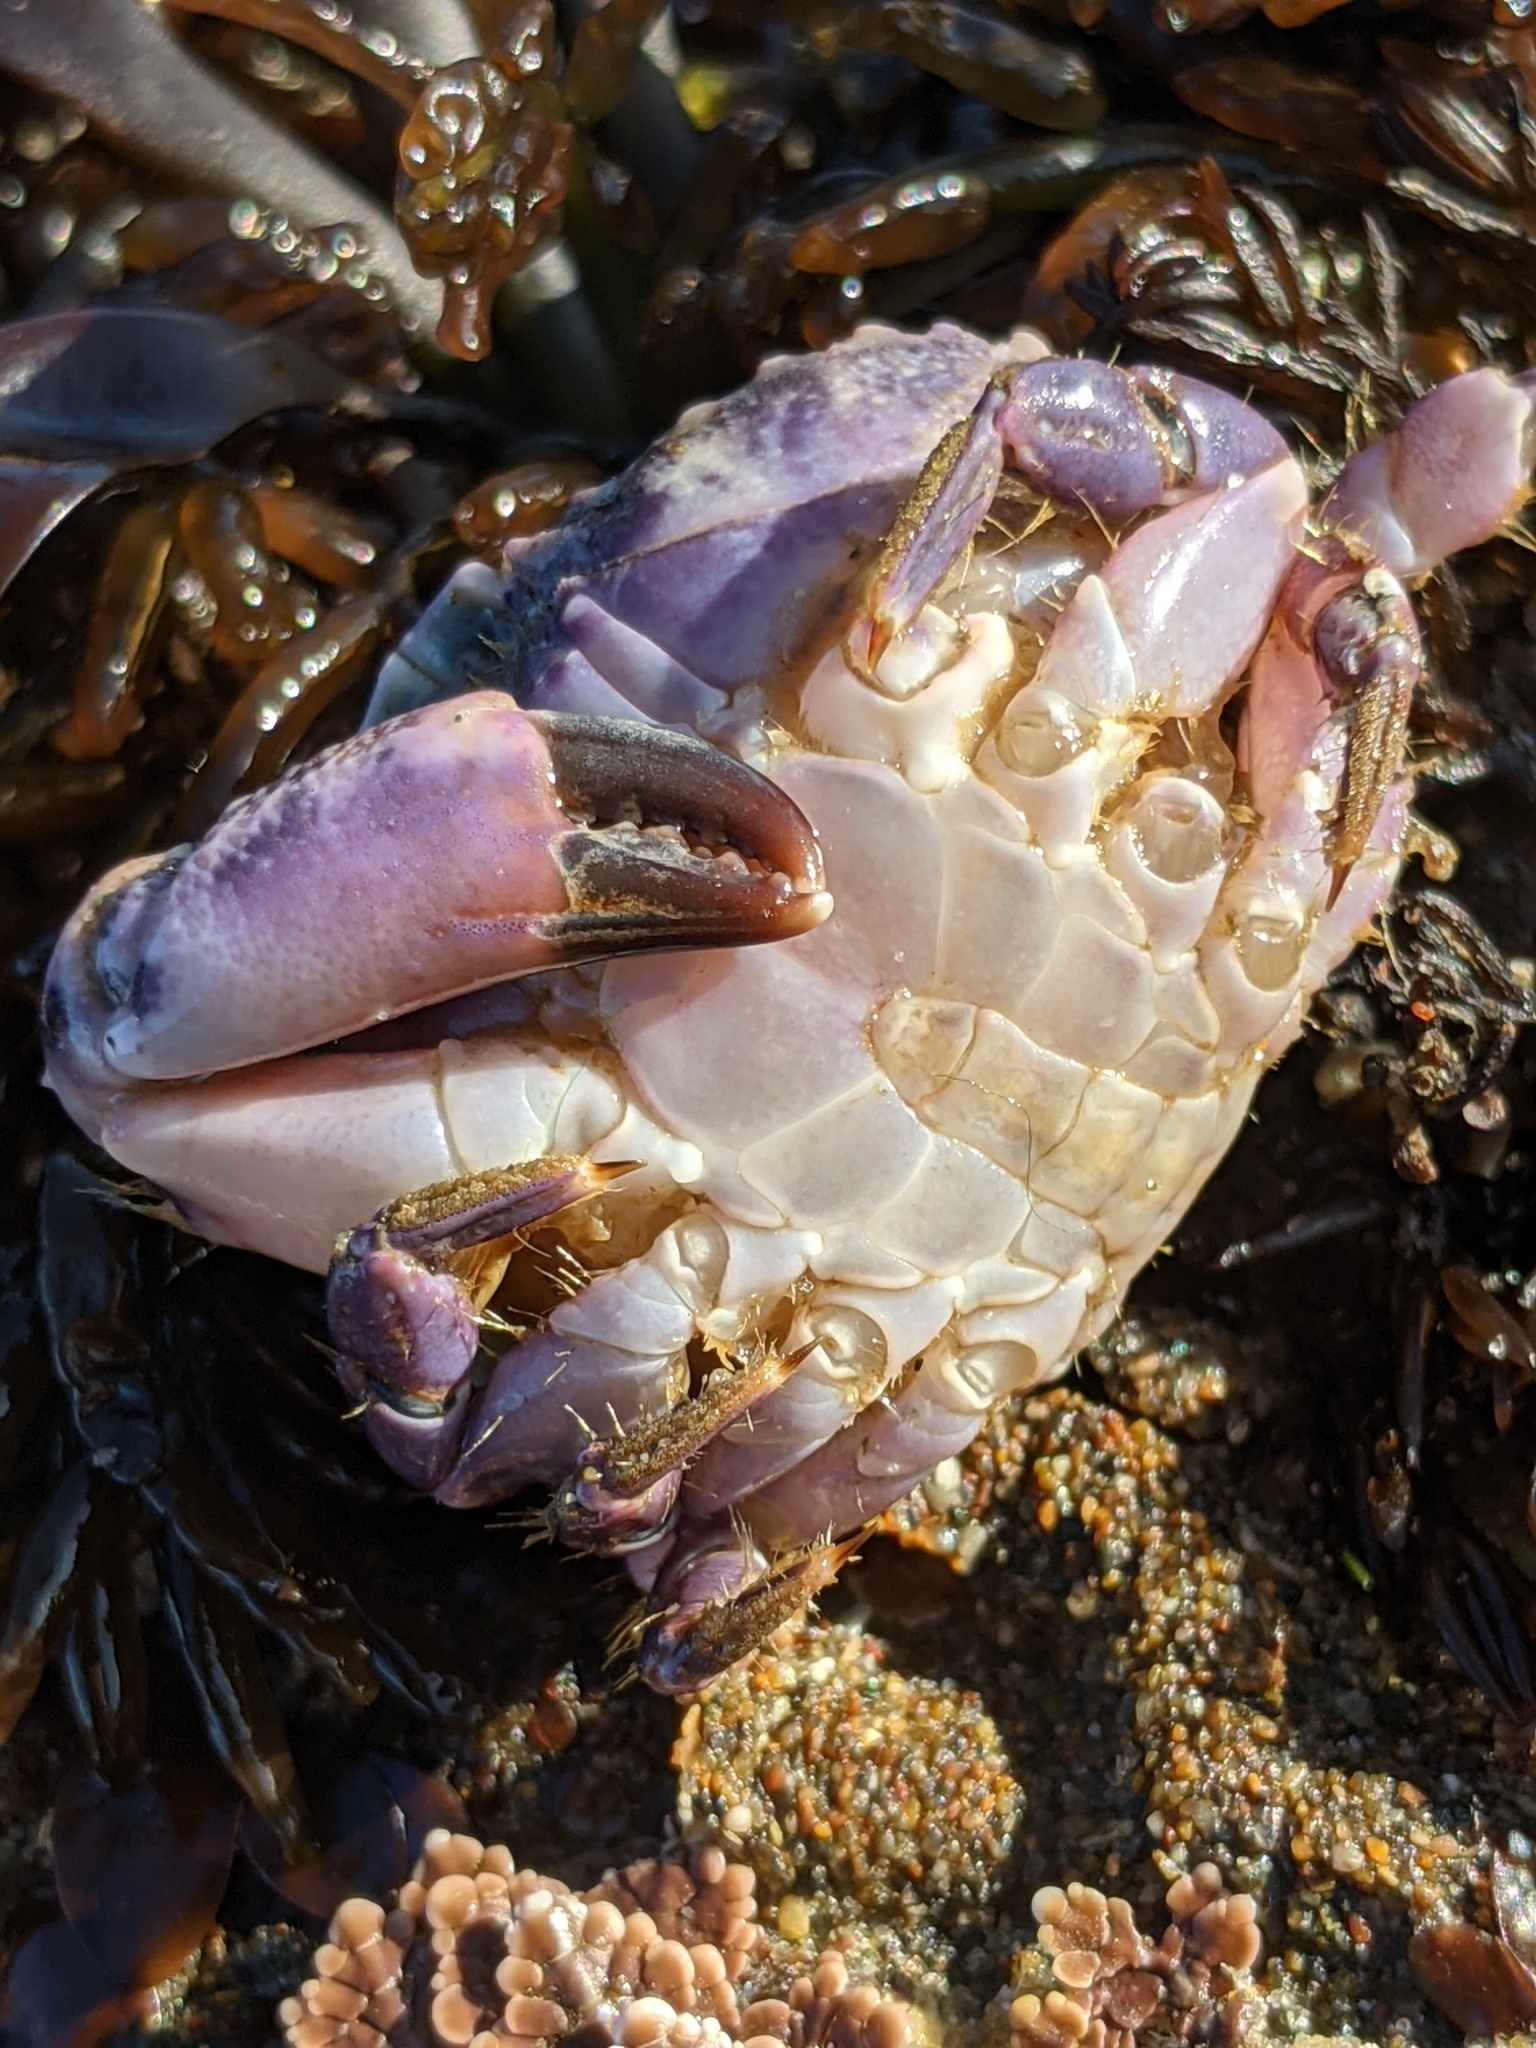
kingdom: Animalia
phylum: Arthropoda
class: Malacostraca
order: Decapoda
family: Xanthidae
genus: Cycloxanthops
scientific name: Cycloxanthops novemdentatus
